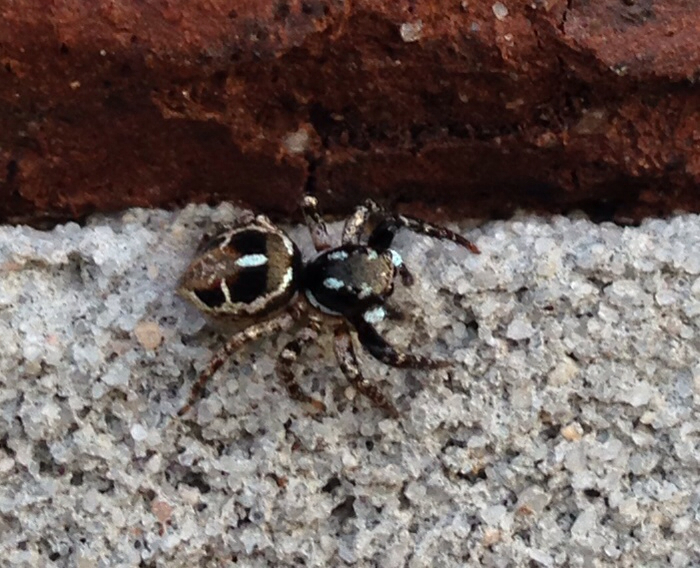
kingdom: Animalia
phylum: Arthropoda
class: Arachnida
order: Araneae
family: Salticidae
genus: Anasaitis
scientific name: Anasaitis canosa
